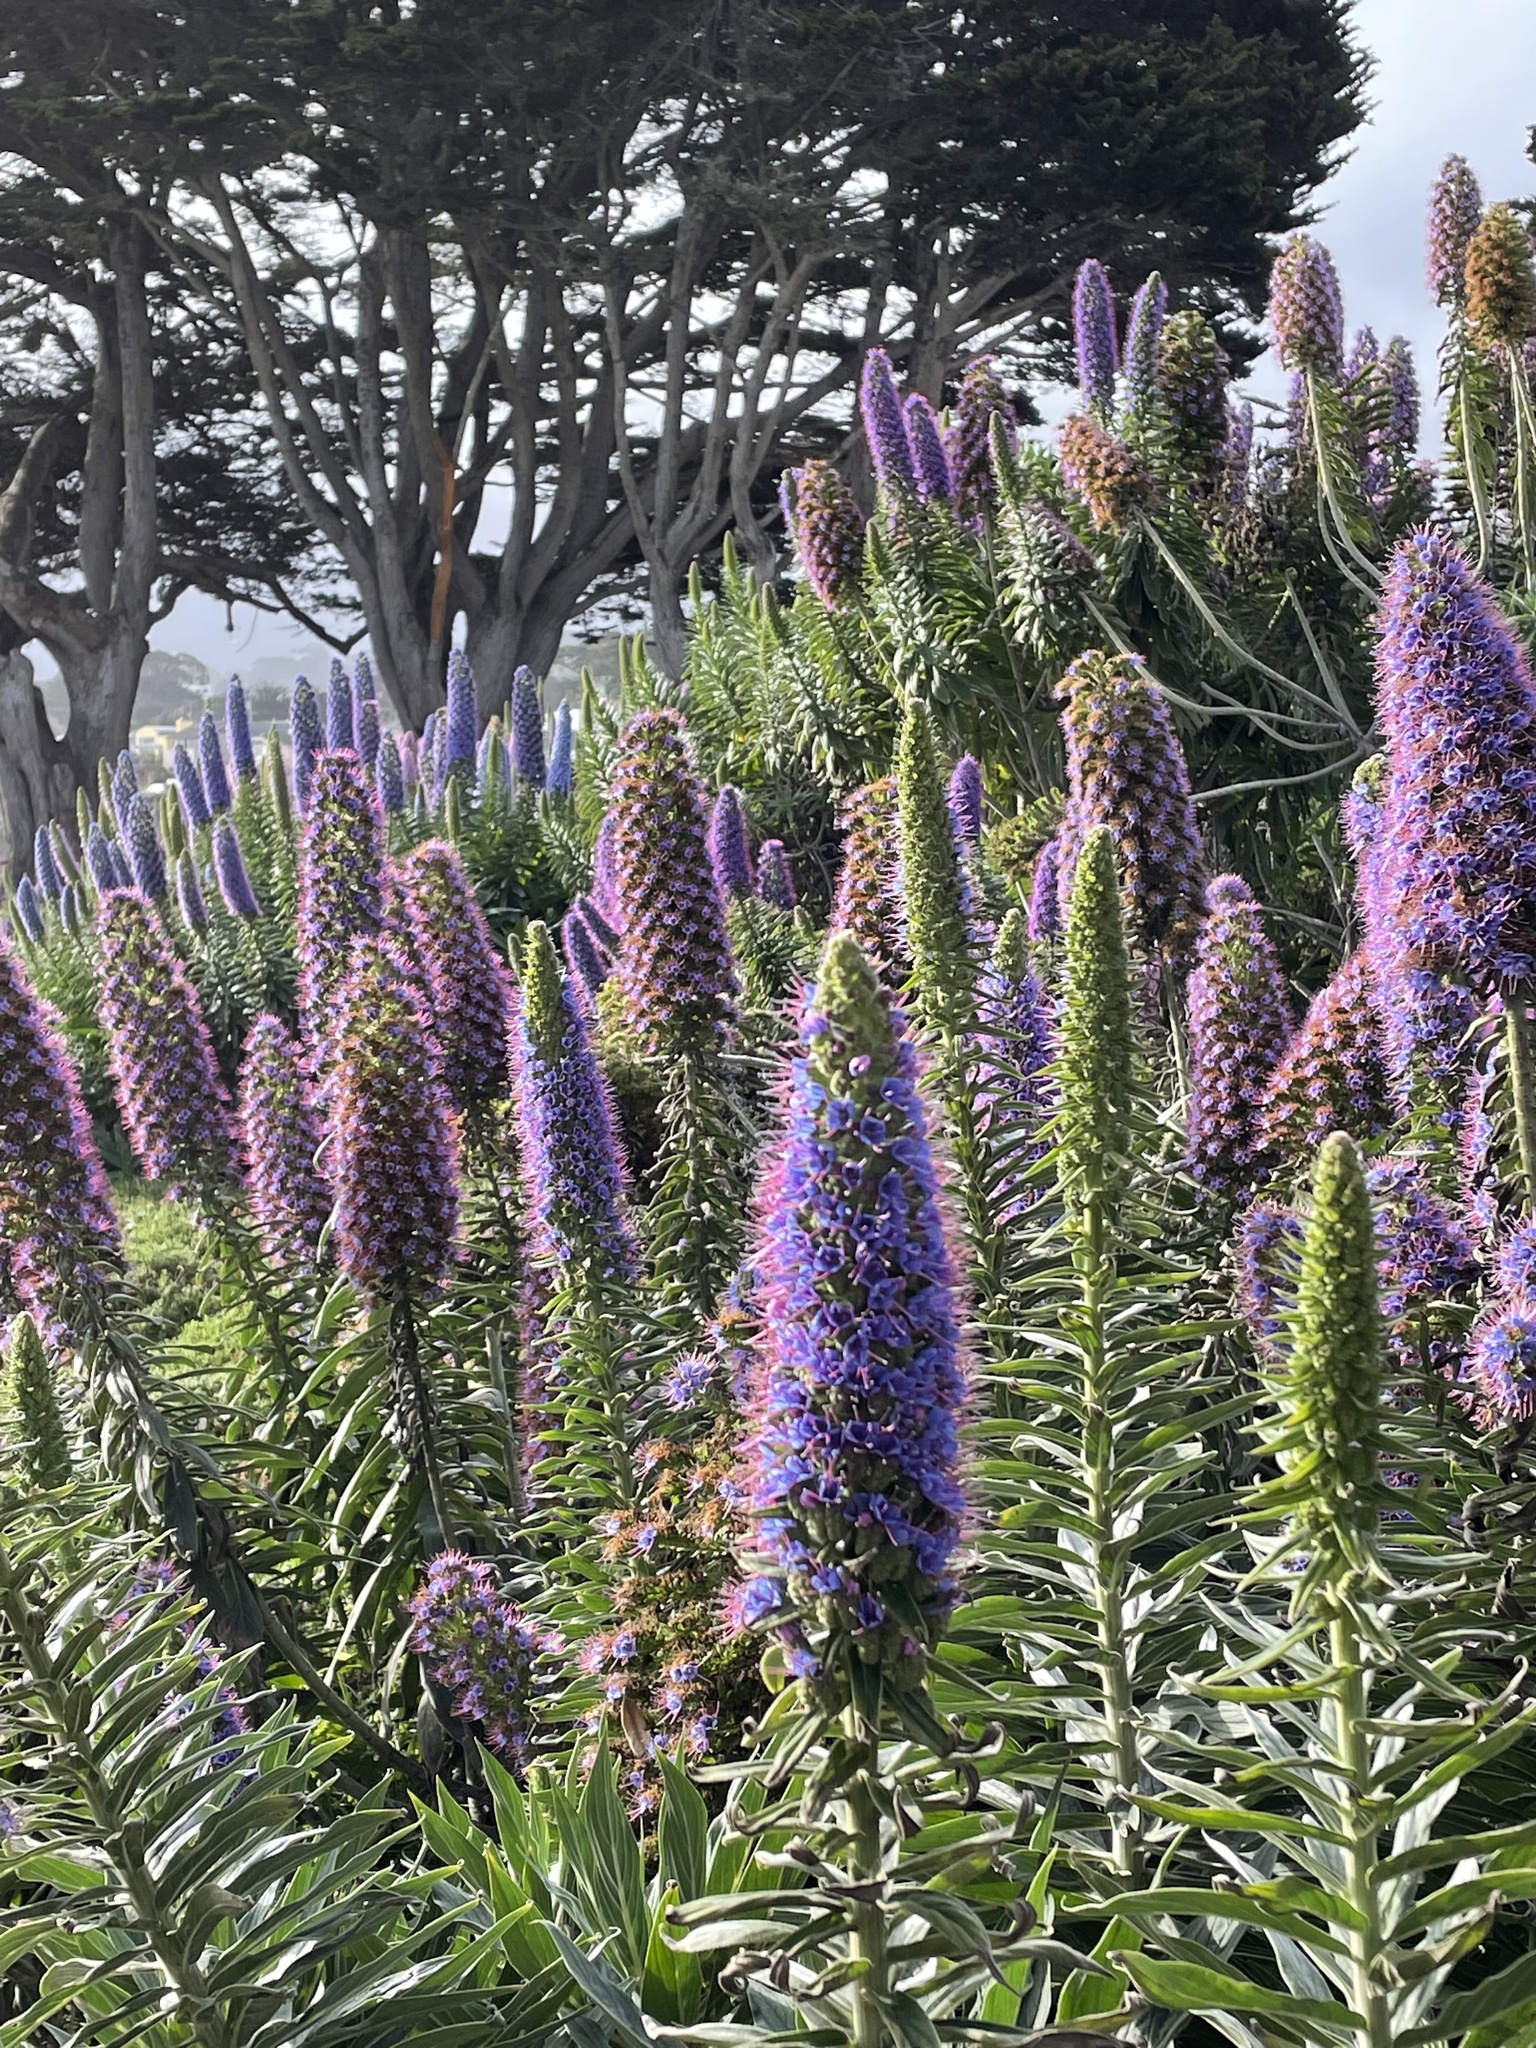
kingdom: Plantae
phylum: Tracheophyta
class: Magnoliopsida
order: Boraginales
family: Boraginaceae
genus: Echium
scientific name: Echium candicans
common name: Pride of madeira
